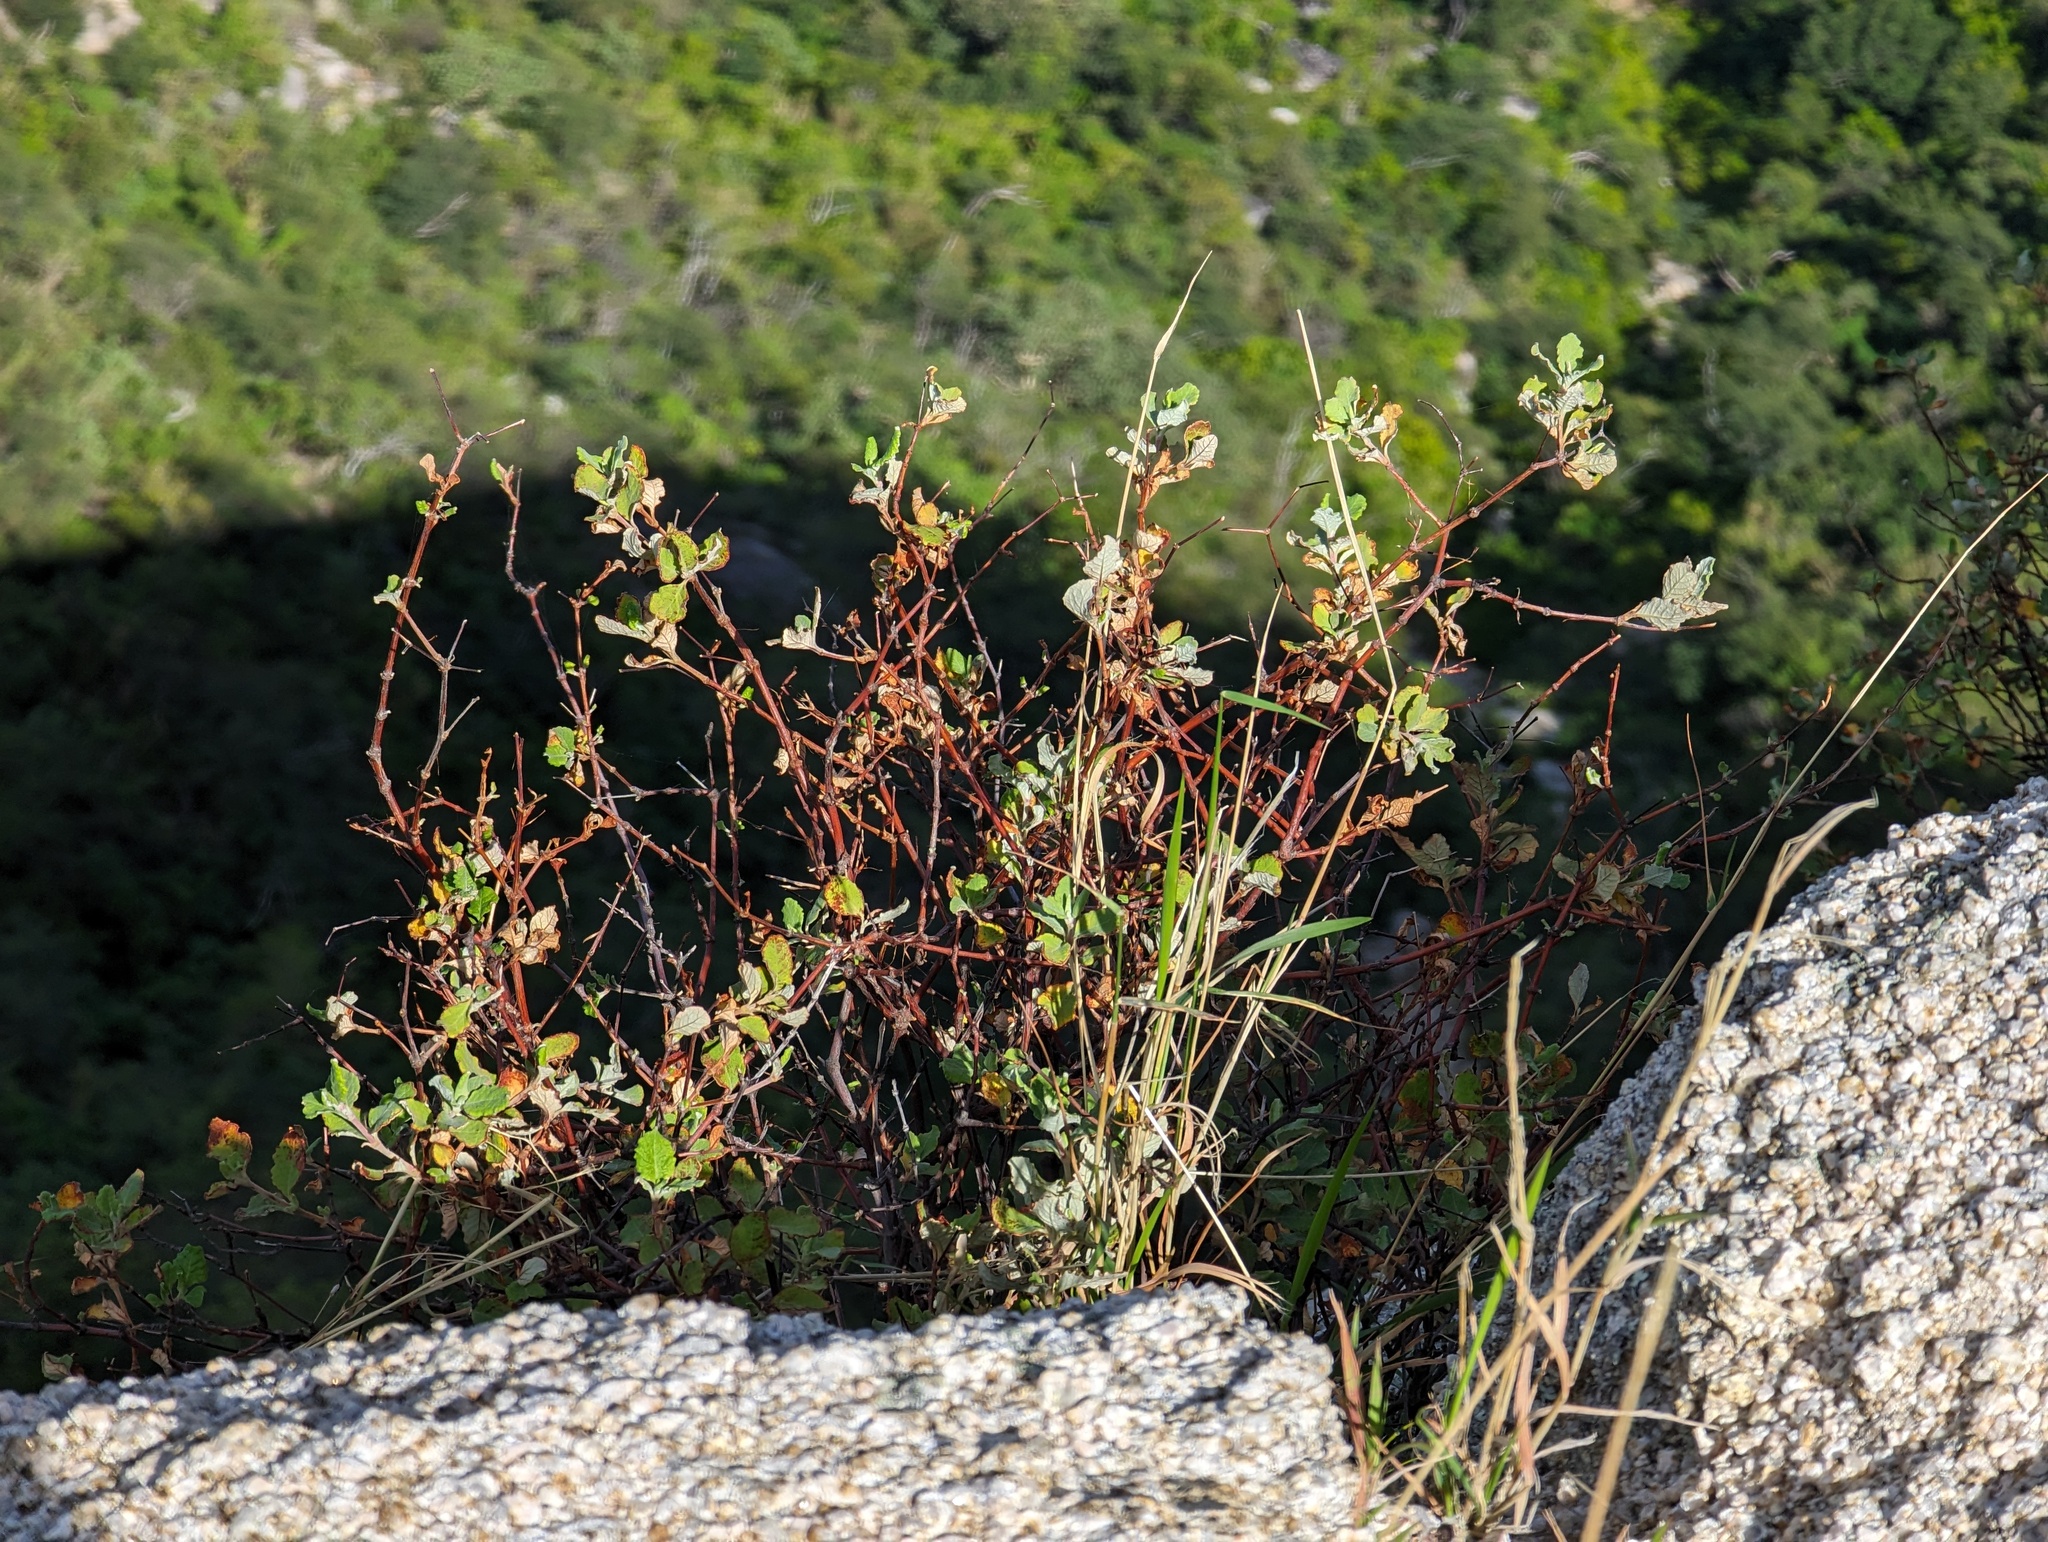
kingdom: Plantae
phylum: Tracheophyta
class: Magnoliopsida
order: Caryophyllales
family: Polygonaceae
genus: Eriogonum
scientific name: Eriogonum calaverense
